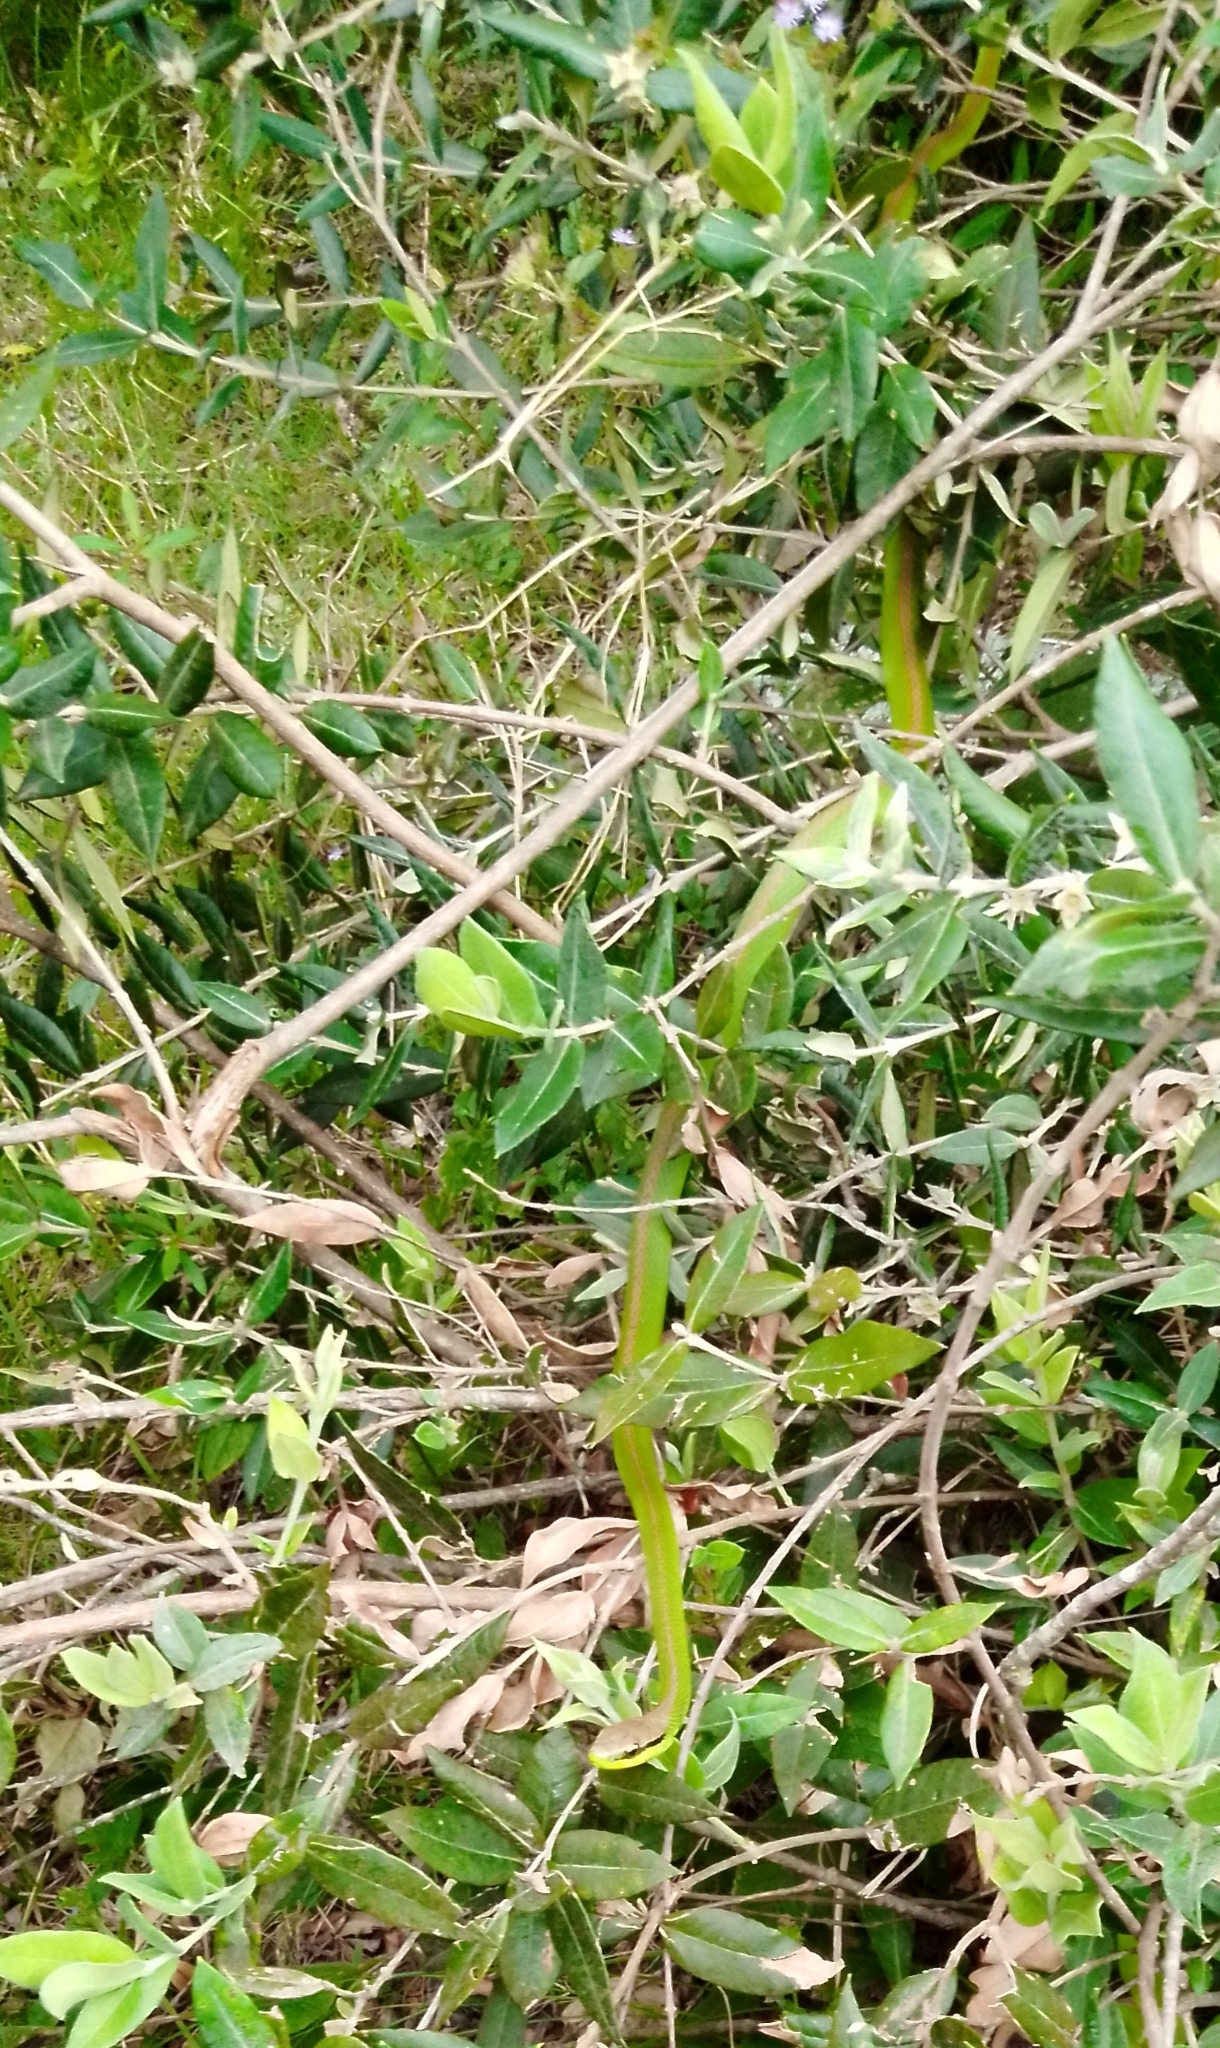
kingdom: Animalia
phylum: Chordata
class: Squamata
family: Colubridae
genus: Philodryas
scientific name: Philodryas olfersii
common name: Lichtenstein's green racer
